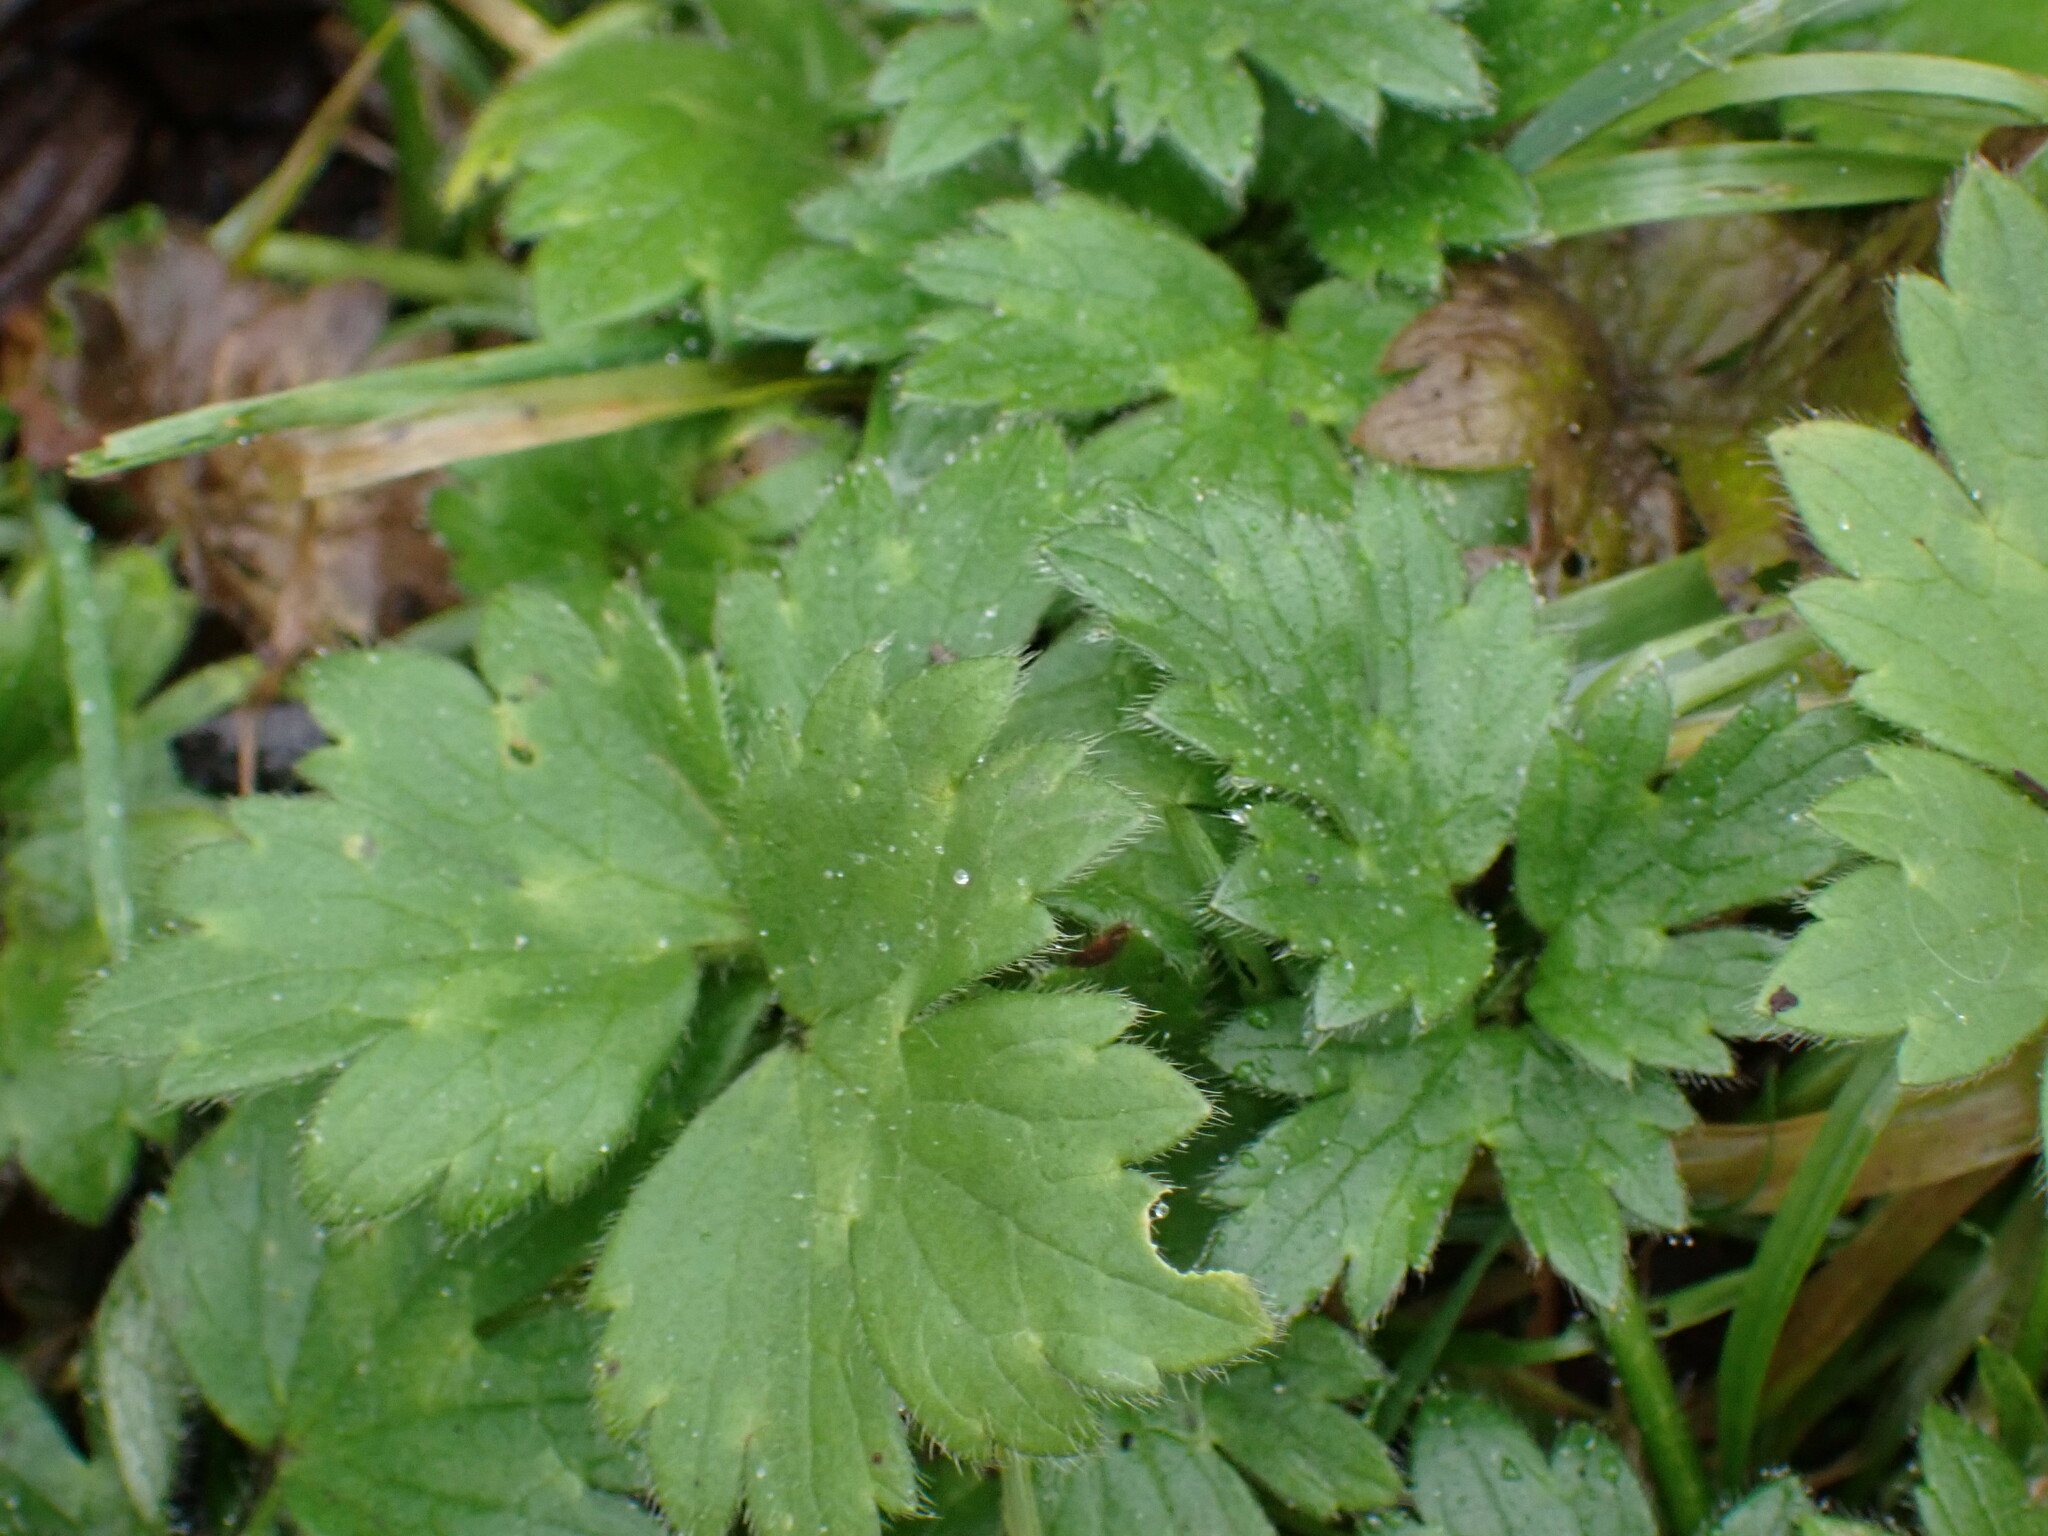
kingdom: Plantae
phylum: Tracheophyta
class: Magnoliopsida
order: Ranunculales
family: Ranunculaceae
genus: Ranunculus
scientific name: Ranunculus repens
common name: Creeping buttercup
